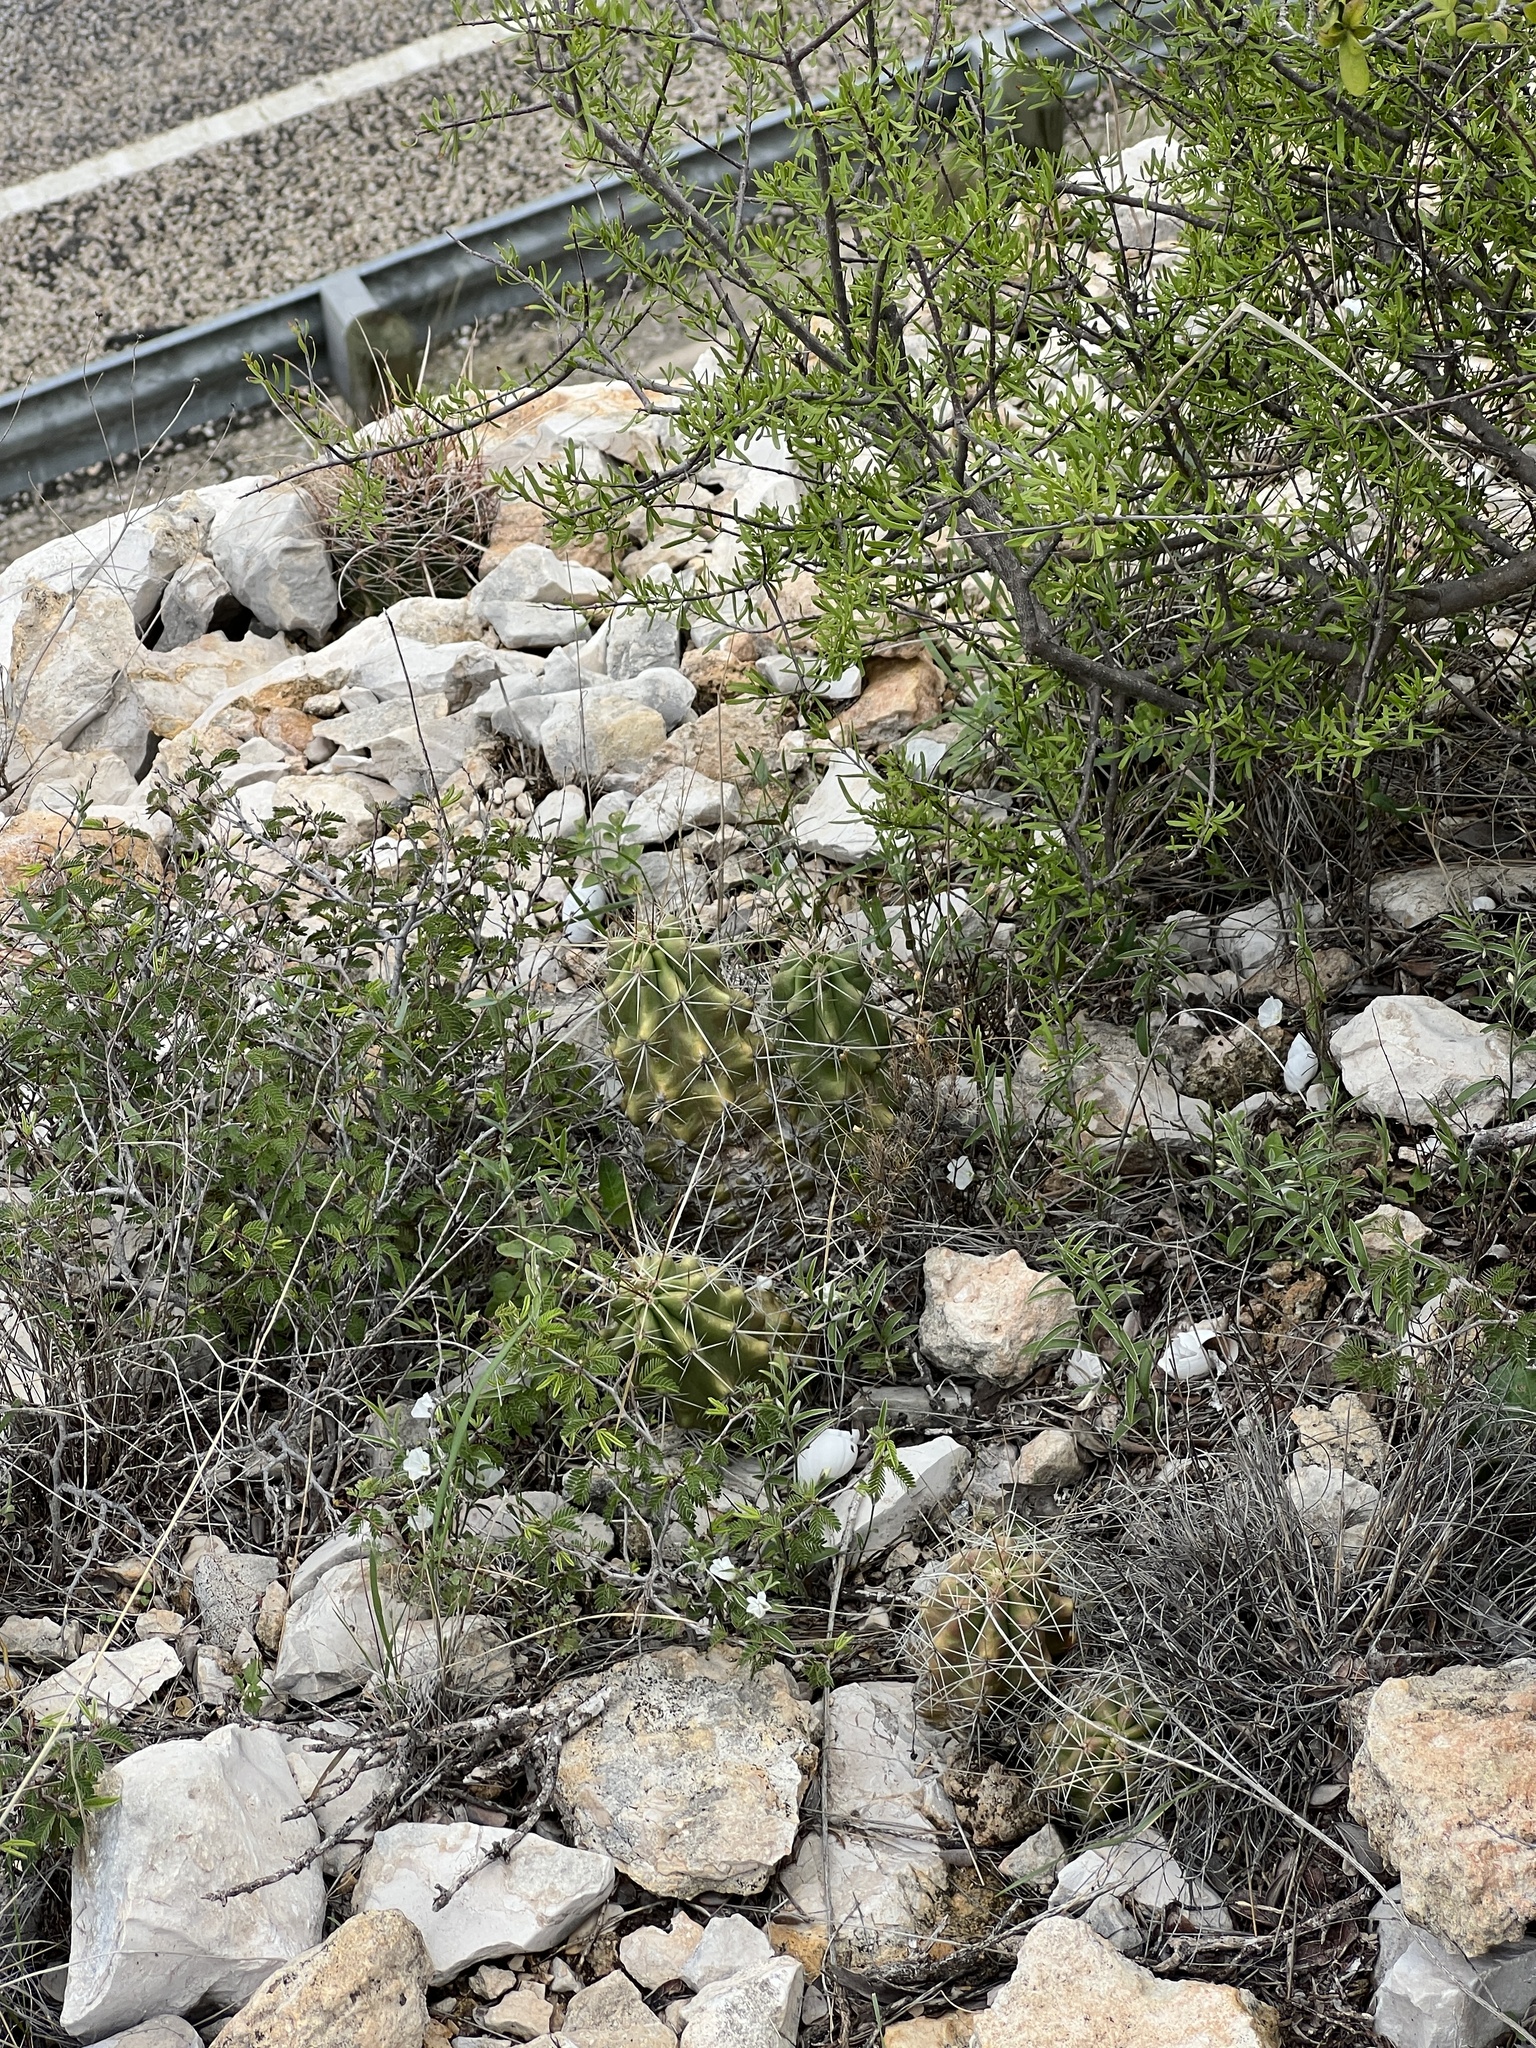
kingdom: Plantae
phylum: Tracheophyta
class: Magnoliopsida
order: Caryophyllales
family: Cactaceae
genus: Echinocereus
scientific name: Echinocereus enneacanthus
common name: Pitaya
